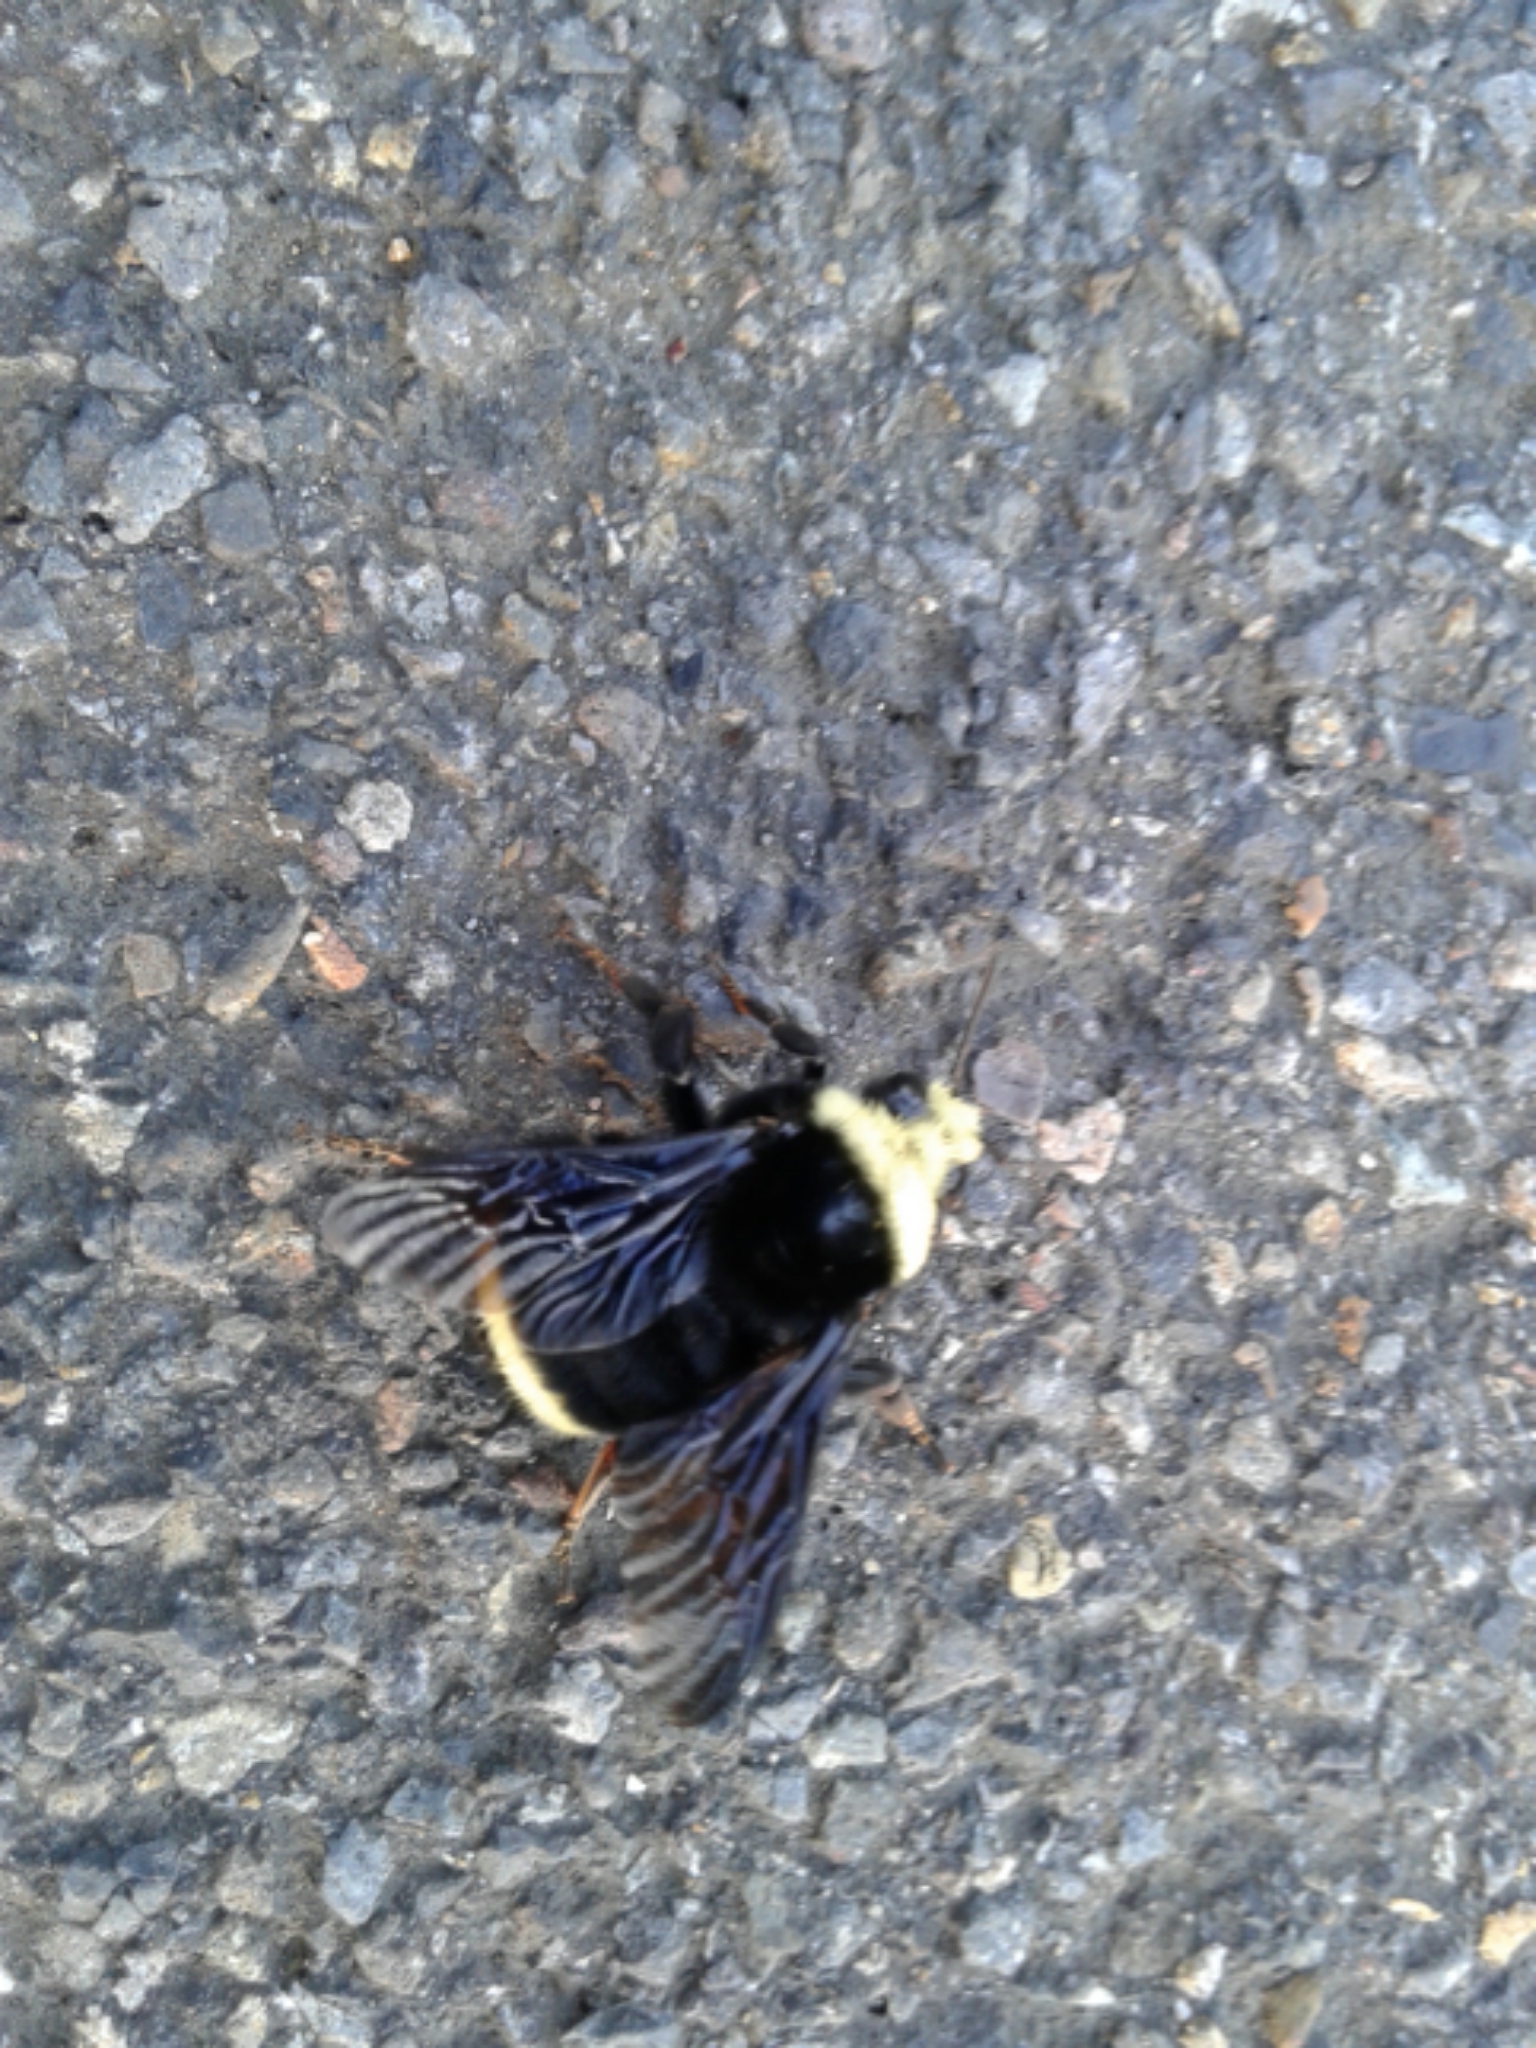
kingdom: Animalia
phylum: Arthropoda
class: Insecta
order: Hymenoptera
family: Apidae
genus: Bombus
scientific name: Bombus vosnesenskii
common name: Vosnesensky bumble bee
